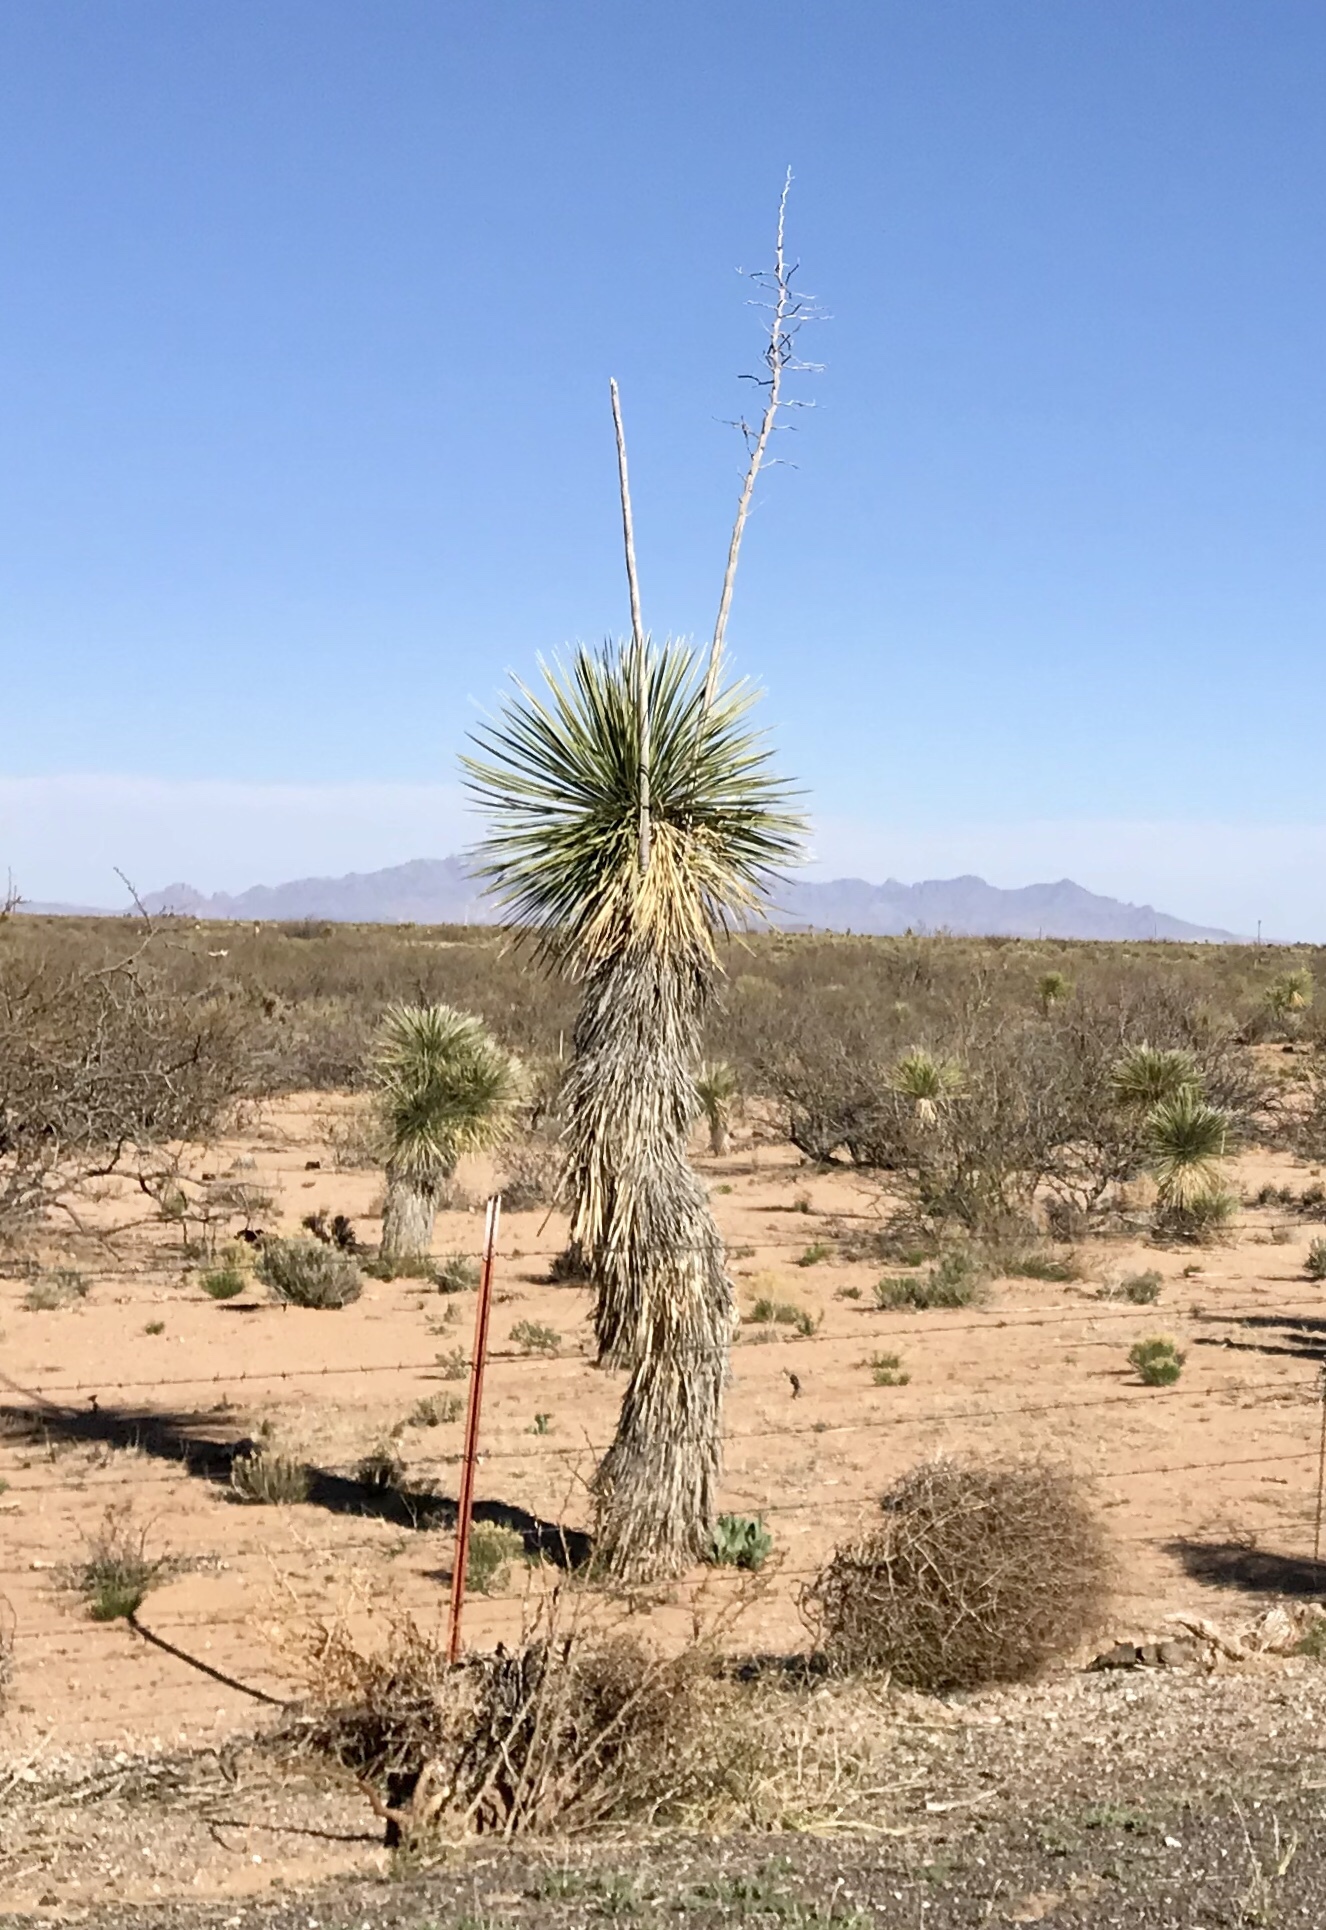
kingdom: Plantae
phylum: Tracheophyta
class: Liliopsida
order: Asparagales
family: Asparagaceae
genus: Yucca
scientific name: Yucca elata
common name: Palmella
